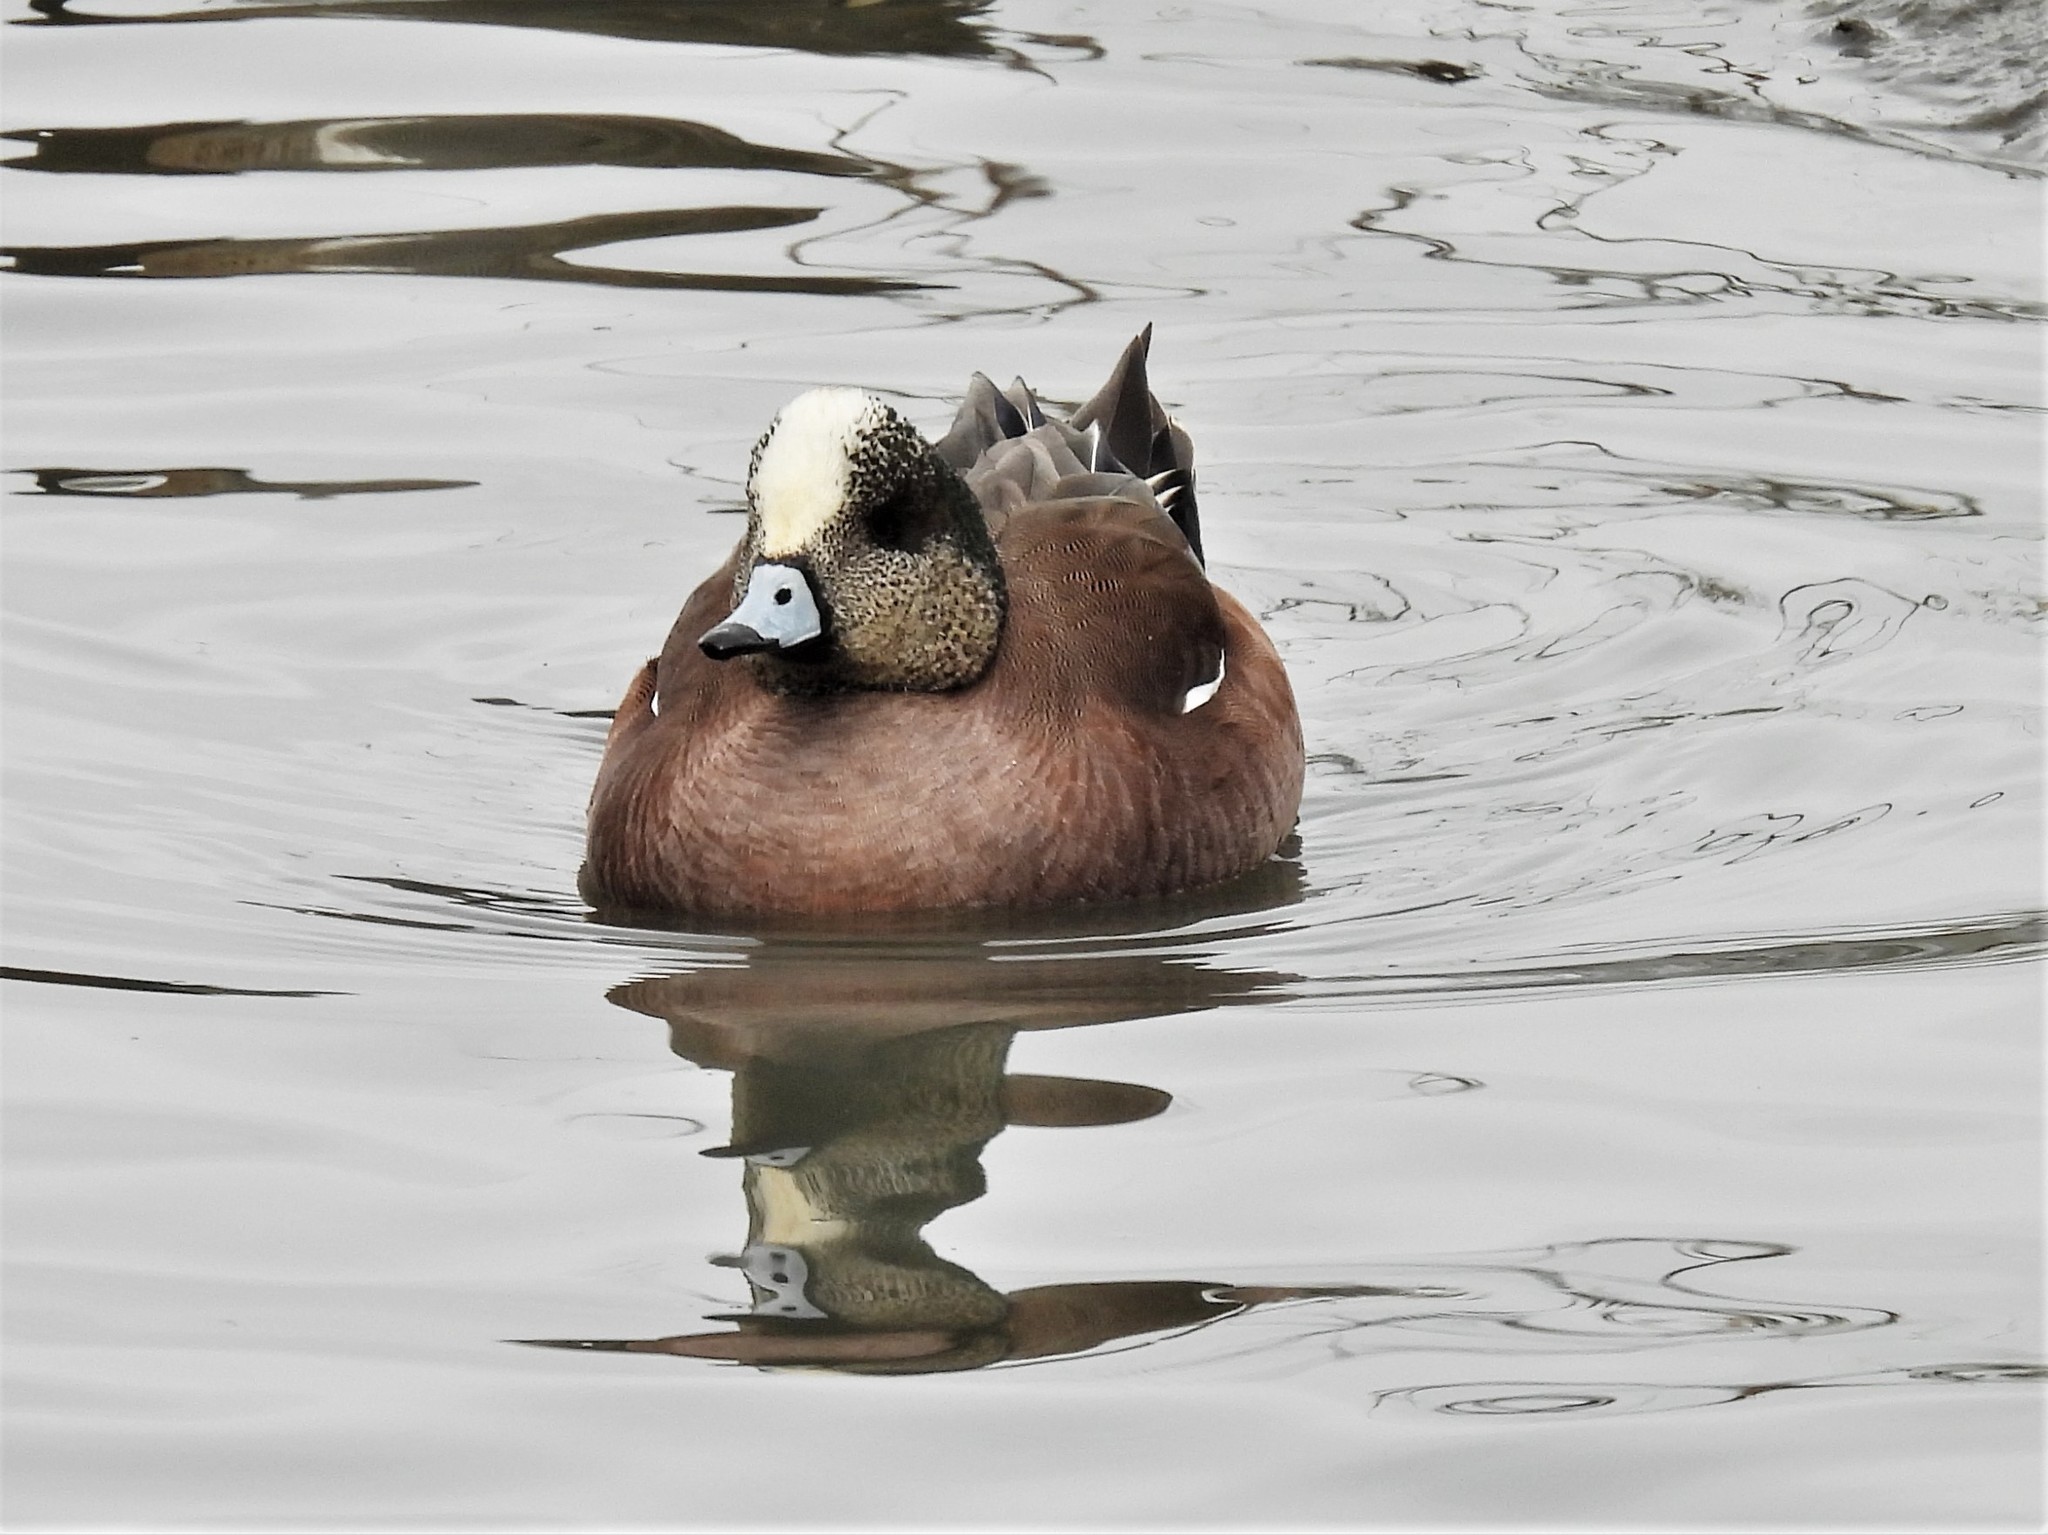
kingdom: Animalia
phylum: Chordata
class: Aves
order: Anseriformes
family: Anatidae
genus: Mareca
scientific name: Mareca americana
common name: American wigeon
